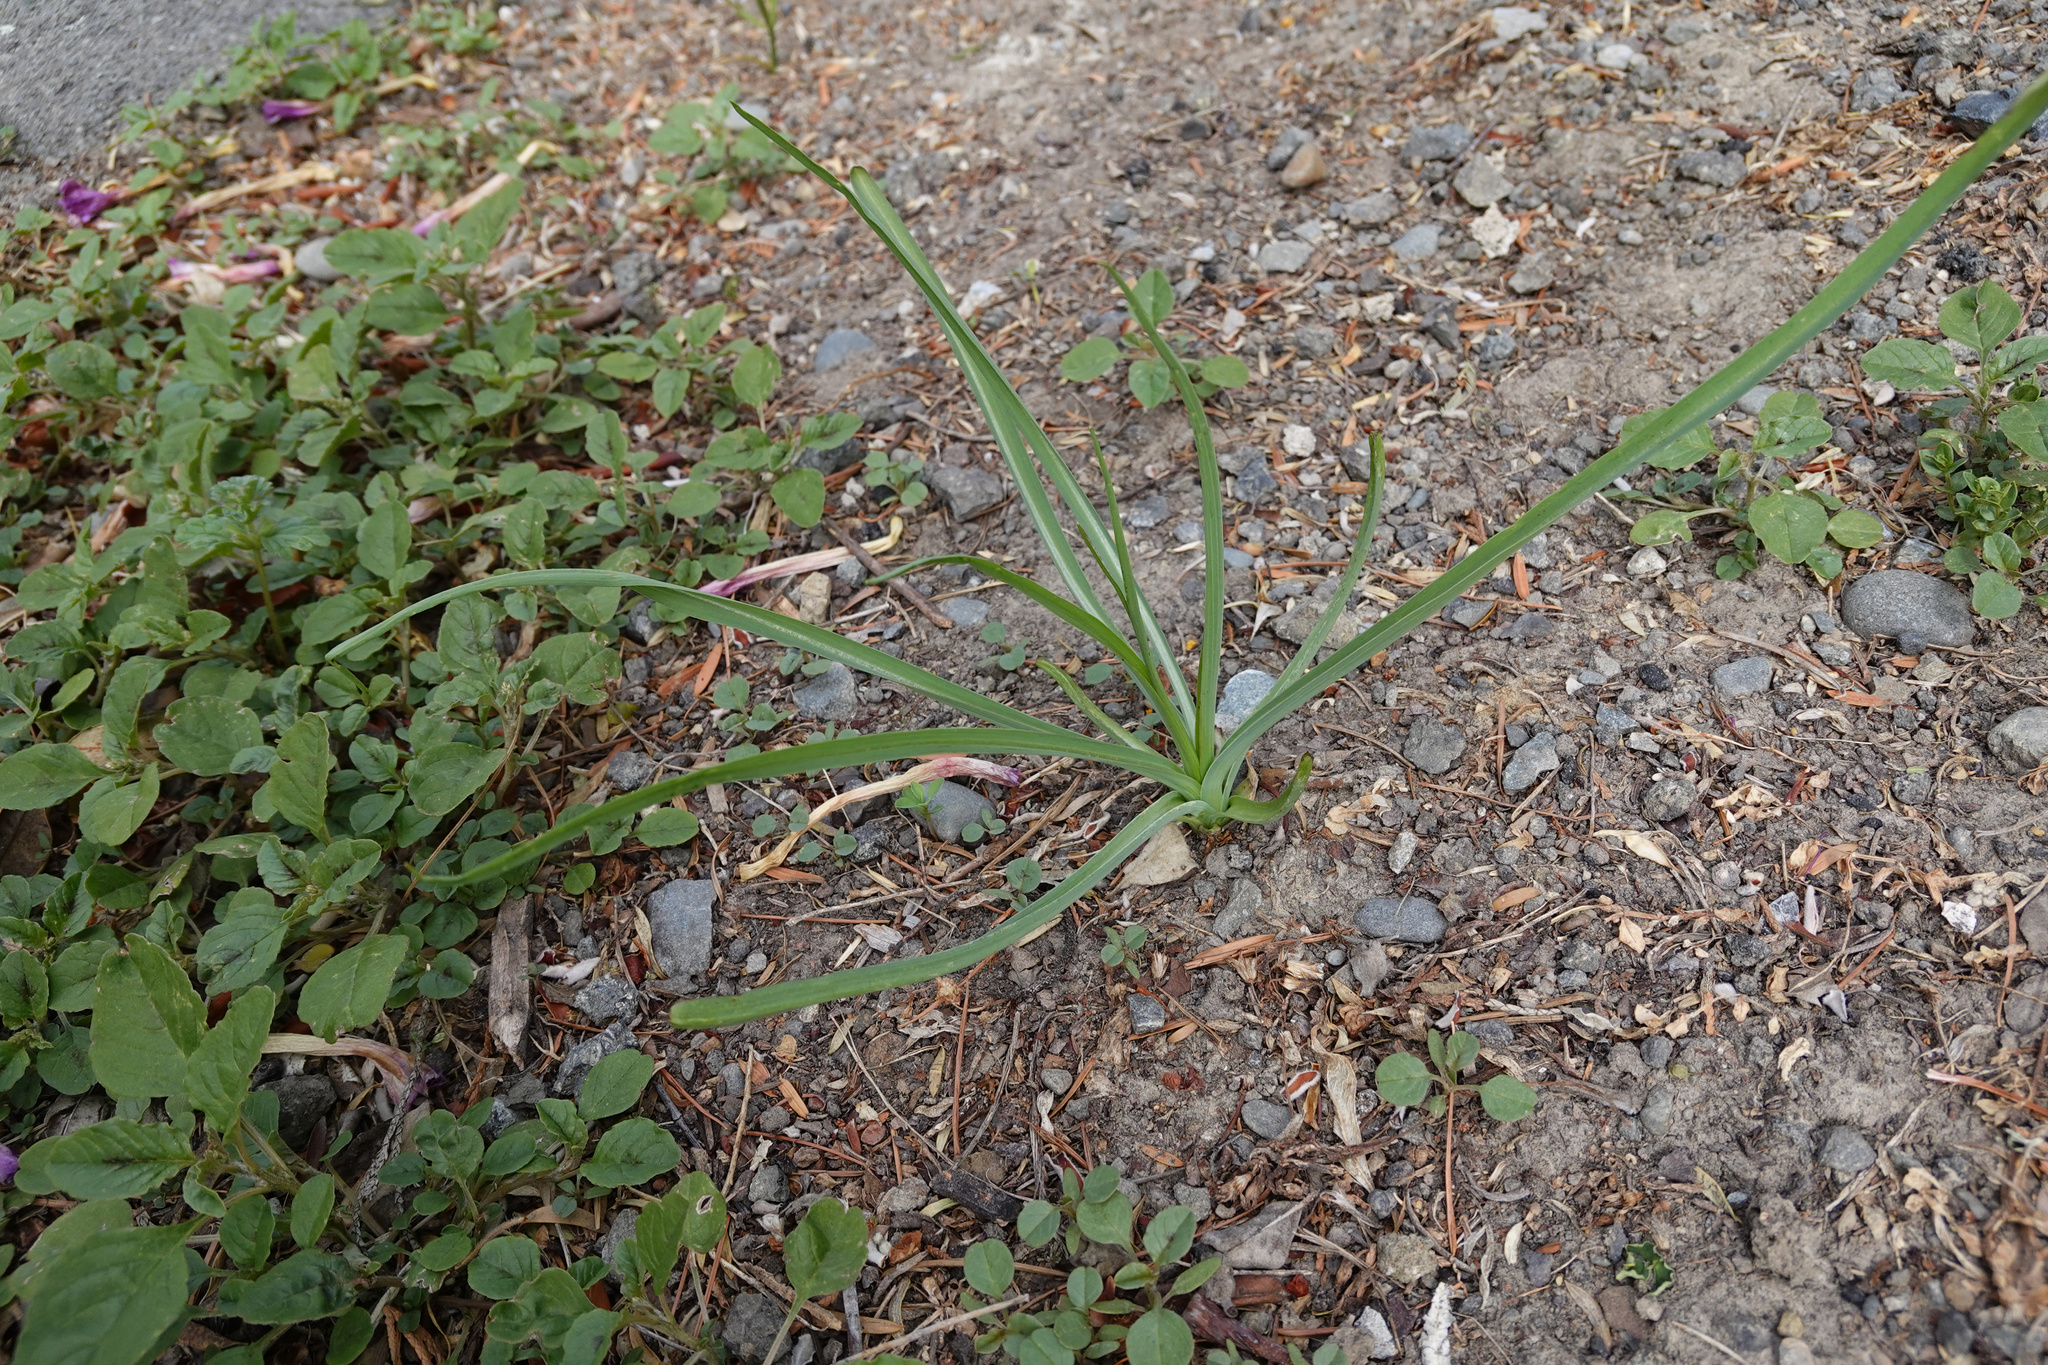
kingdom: Plantae
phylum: Tracheophyta
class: Magnoliopsida
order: Asterales
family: Asteraceae
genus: Tragopogon
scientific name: Tragopogon porrifolius
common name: Salsify
